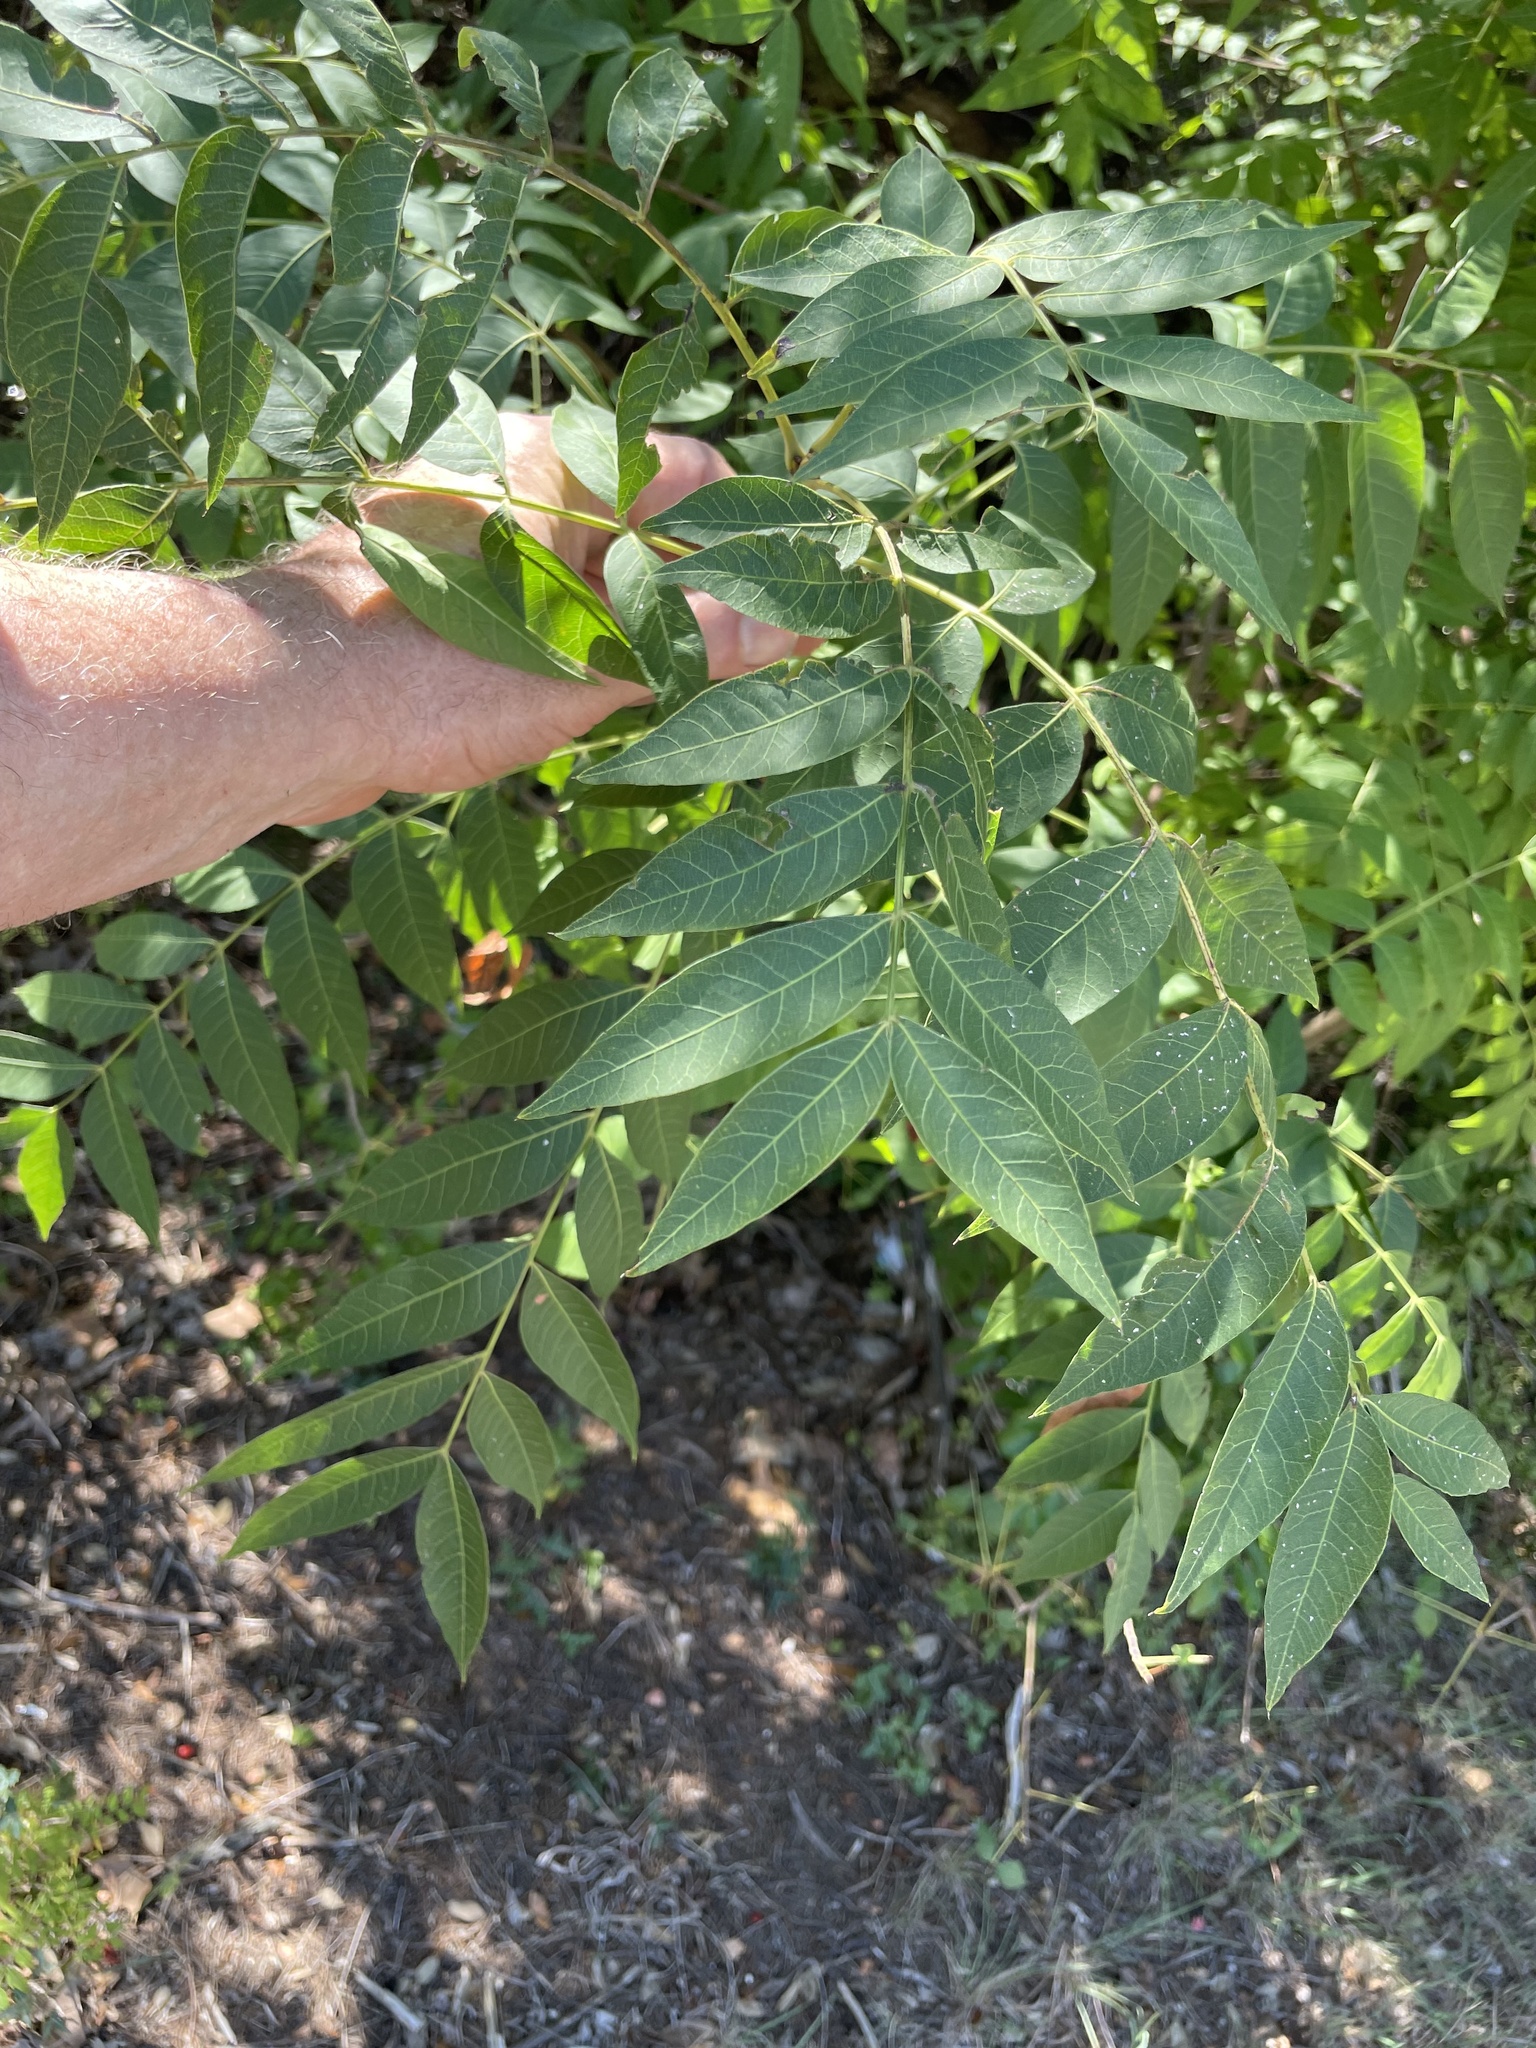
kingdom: Plantae
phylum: Tracheophyta
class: Magnoliopsida
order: Sapindales
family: Anacardiaceae
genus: Pistacia
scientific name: Pistacia chinensis
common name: Chinese pistache
